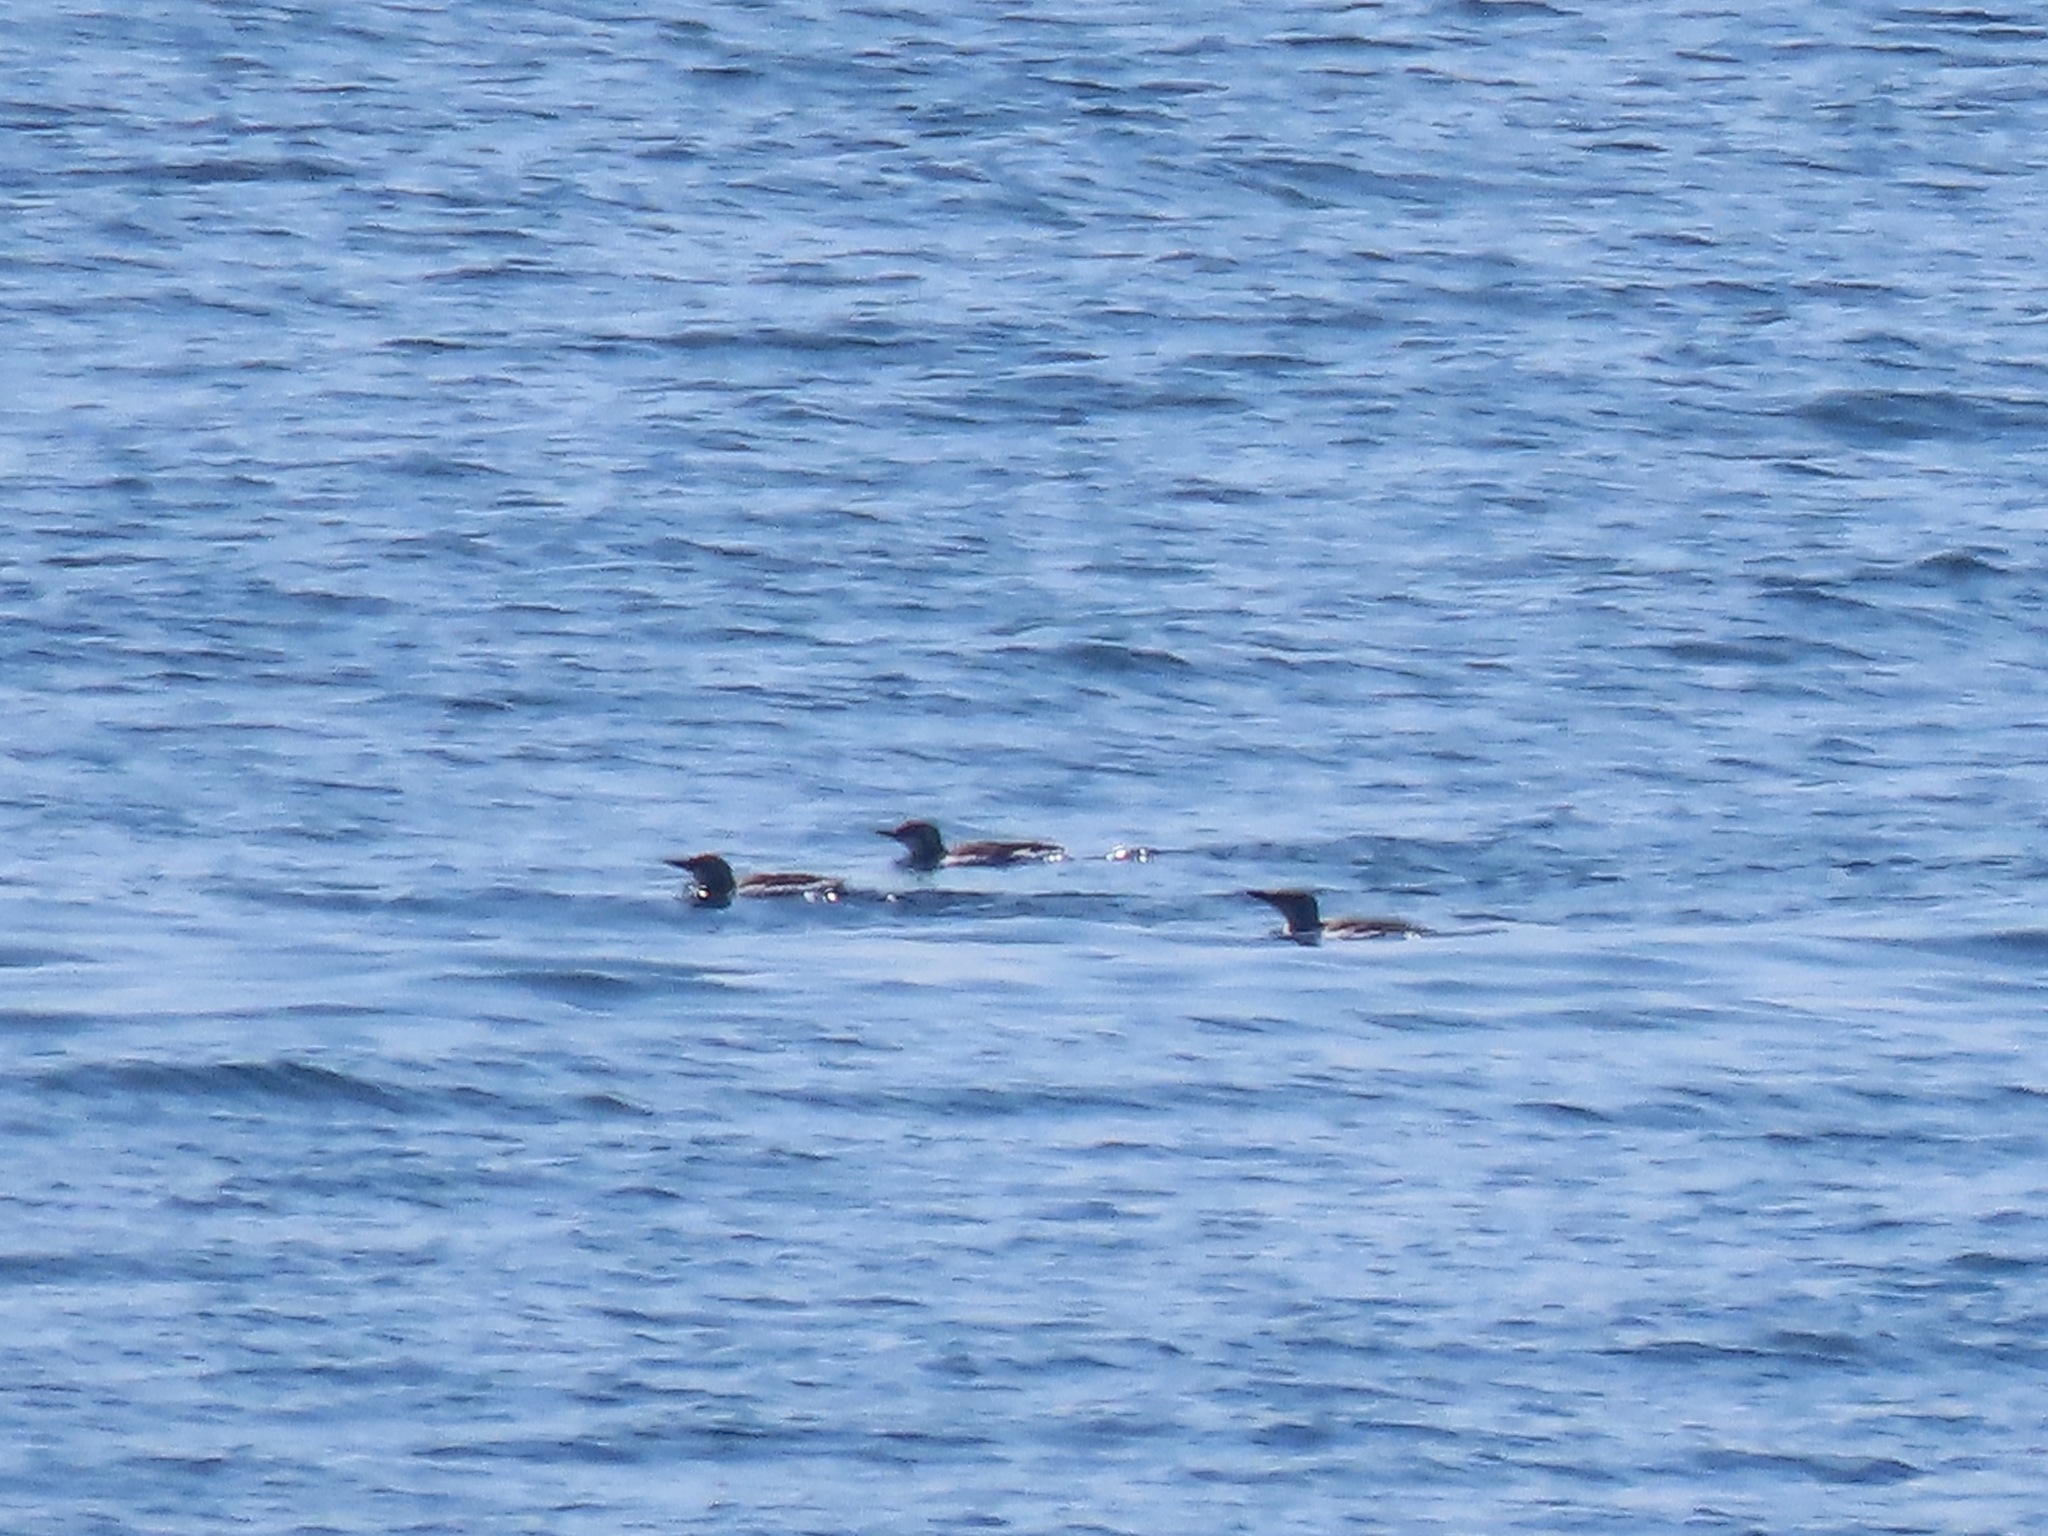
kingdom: Animalia
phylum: Chordata
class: Aves
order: Charadriiformes
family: Alcidae
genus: Uria
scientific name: Uria aalge
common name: Common murre
